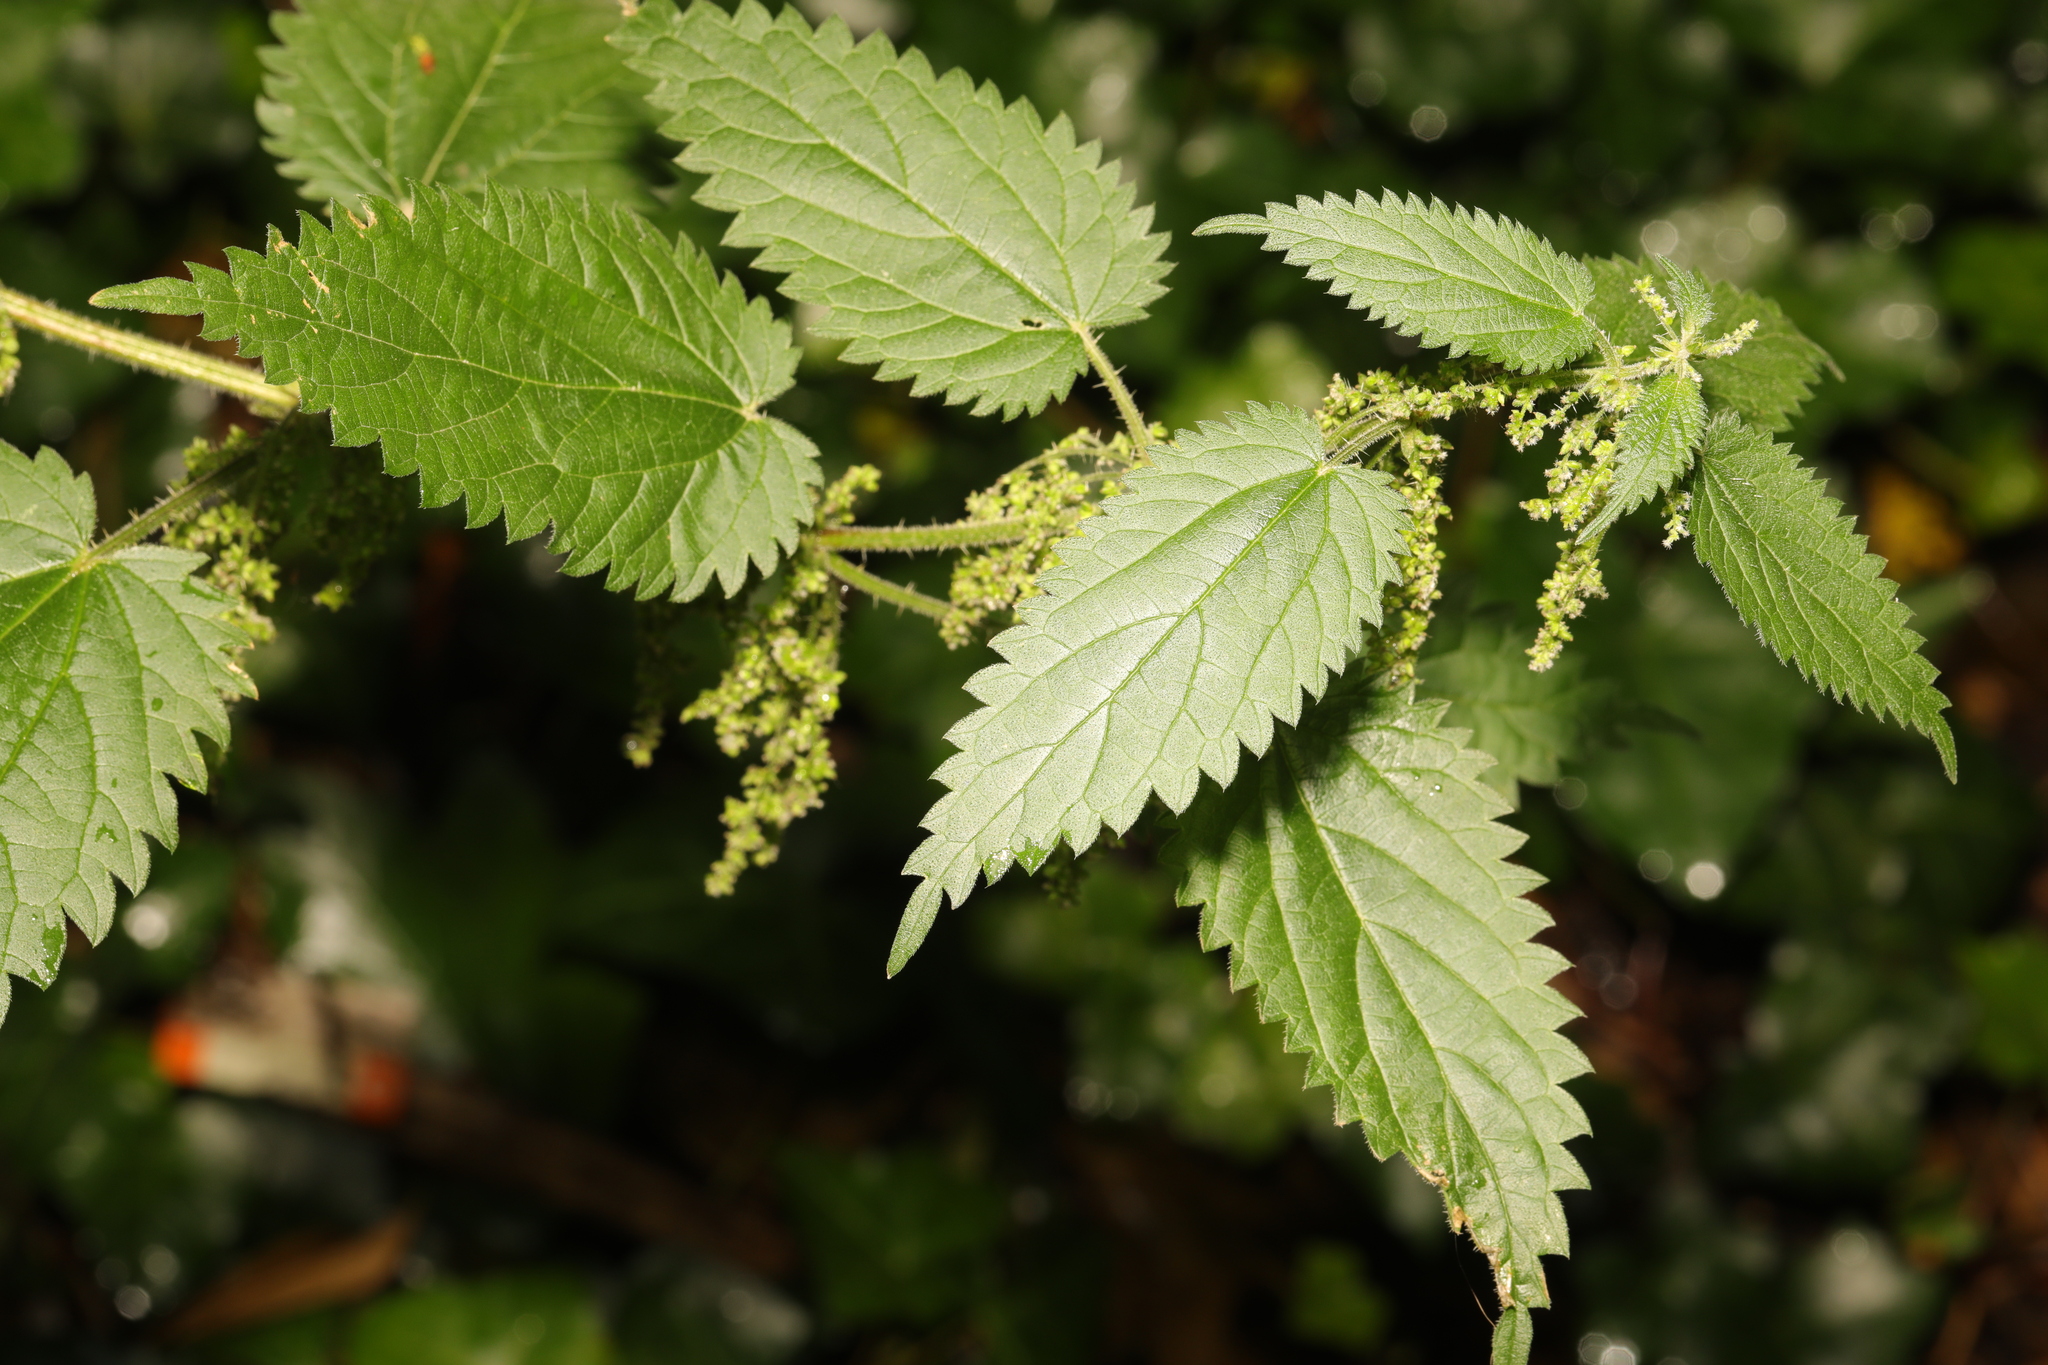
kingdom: Plantae
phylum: Tracheophyta
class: Magnoliopsida
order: Rosales
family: Urticaceae
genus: Urtica
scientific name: Urtica dioica
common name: Common nettle
